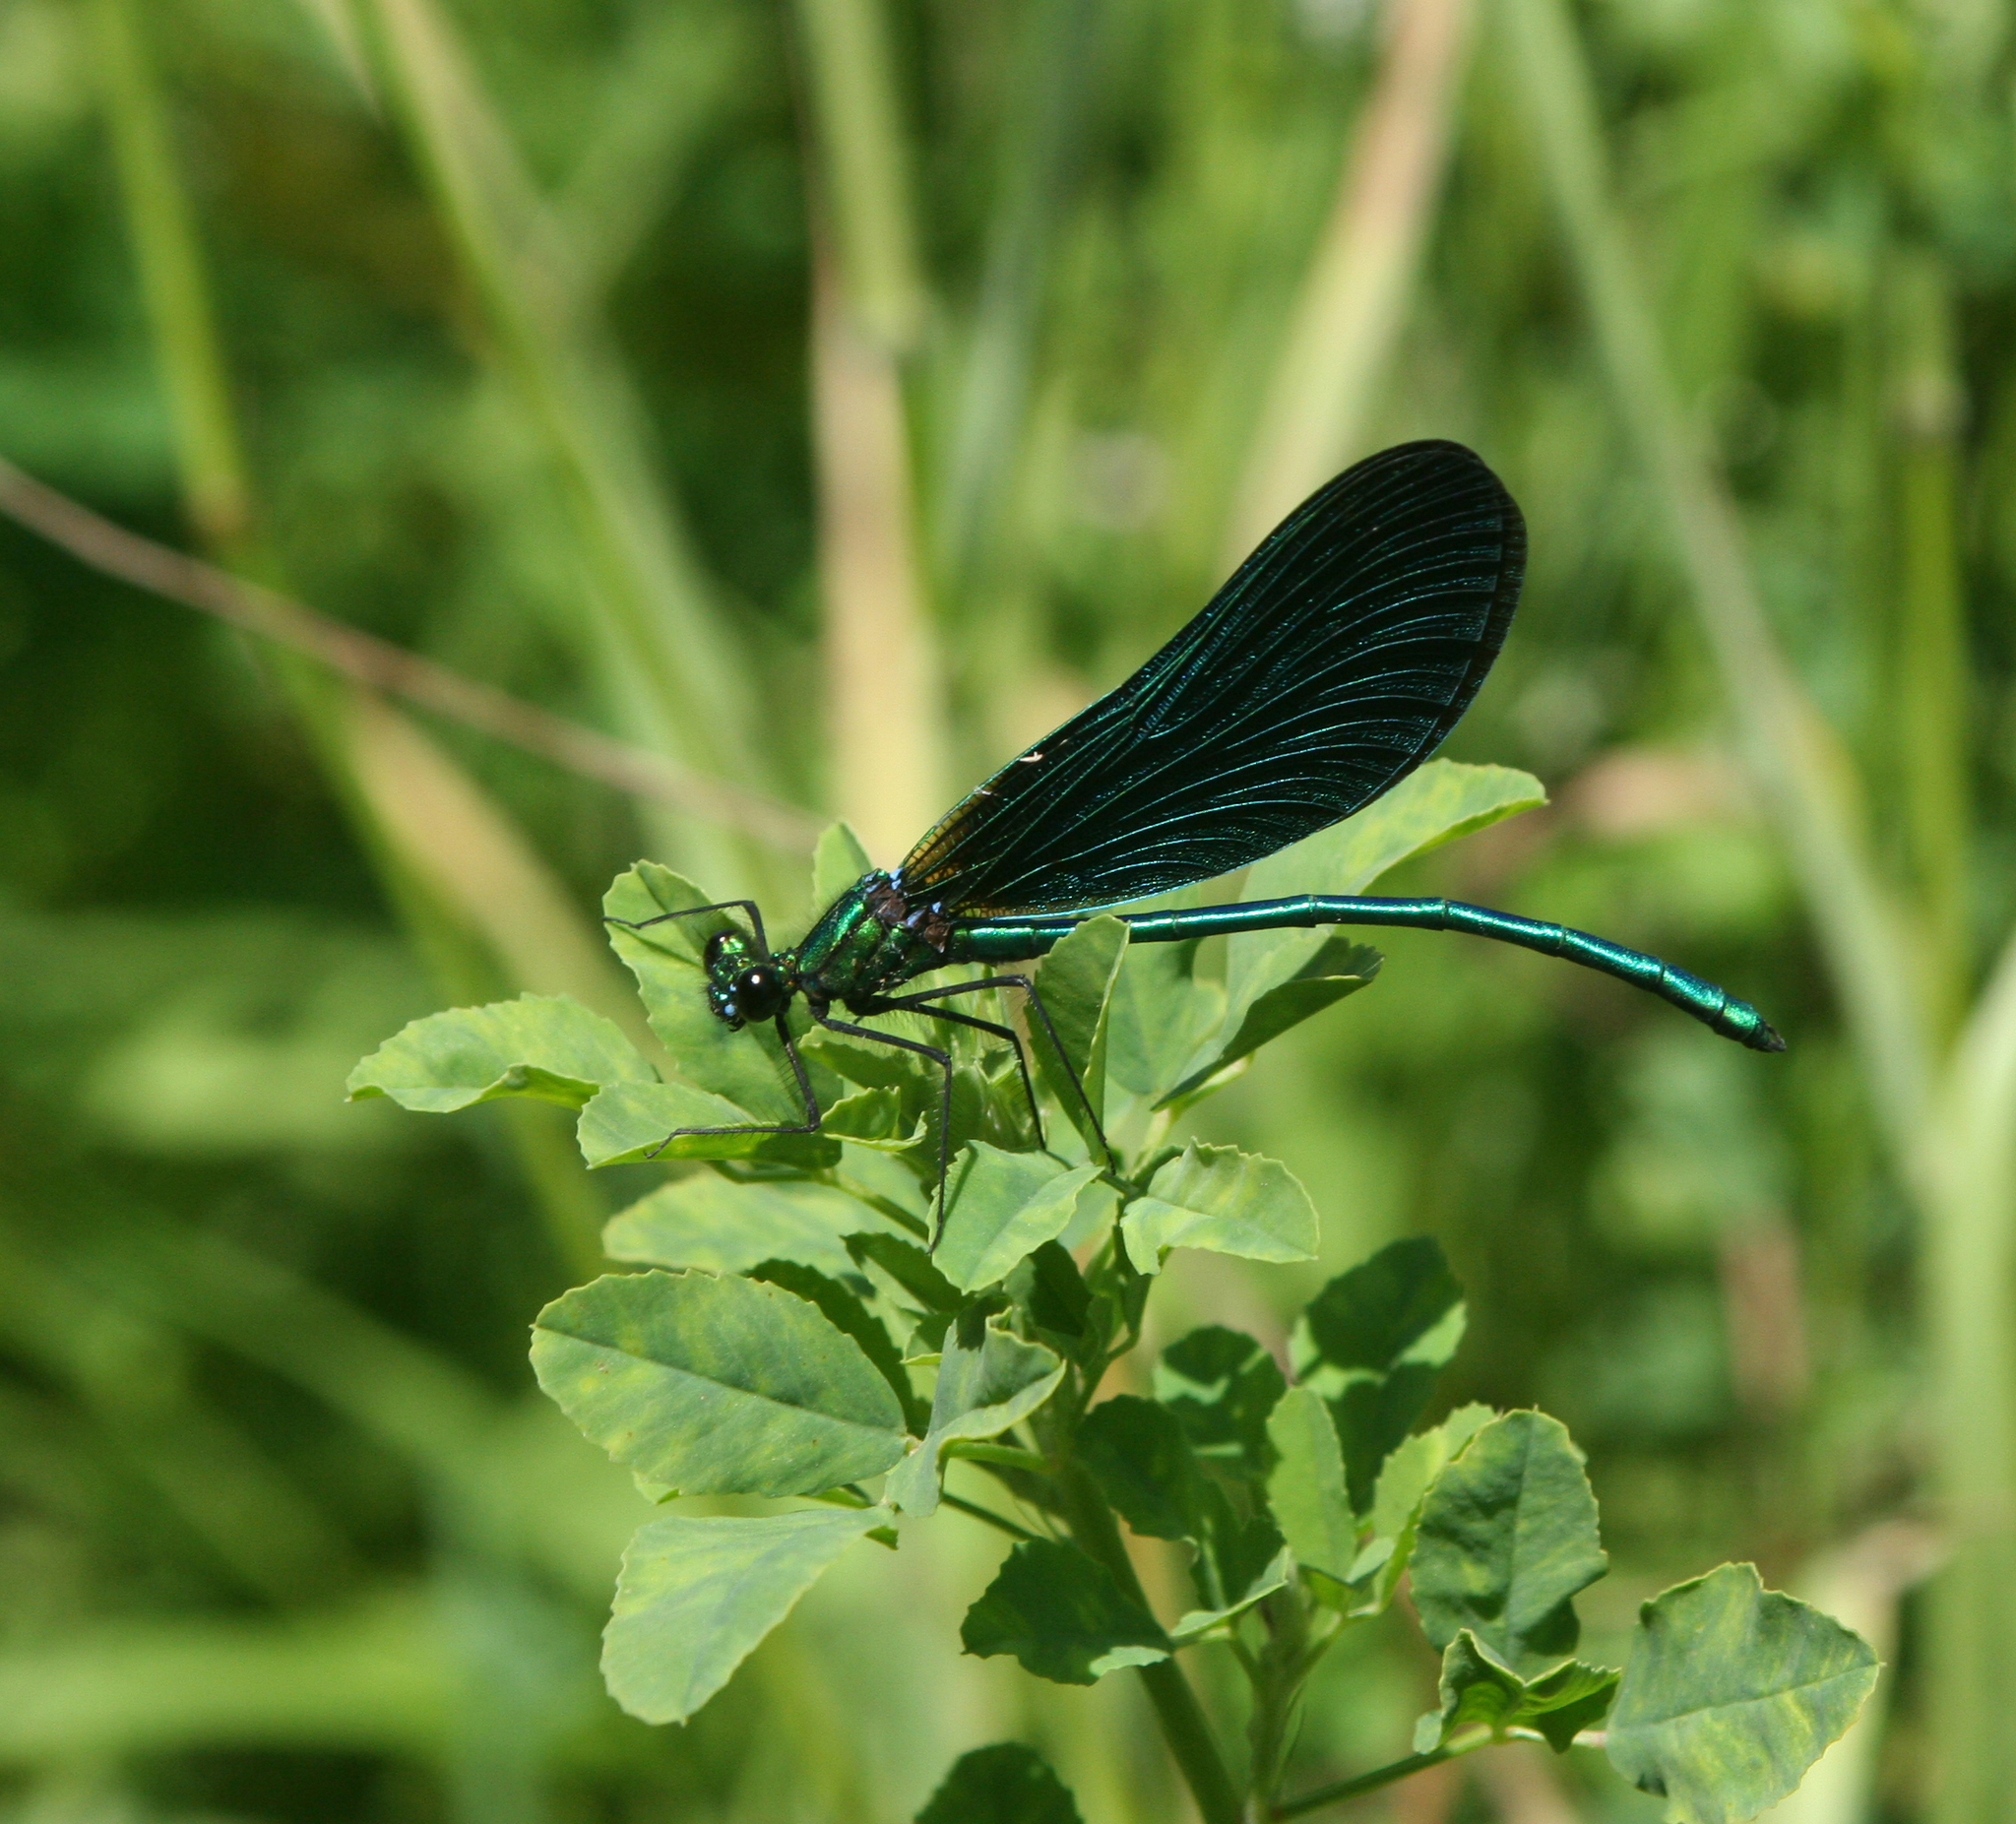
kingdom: Animalia
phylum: Arthropoda
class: Insecta
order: Odonata
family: Calopterygidae
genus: Calopteryx
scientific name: Calopteryx virgo
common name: Beautiful demoiselle
